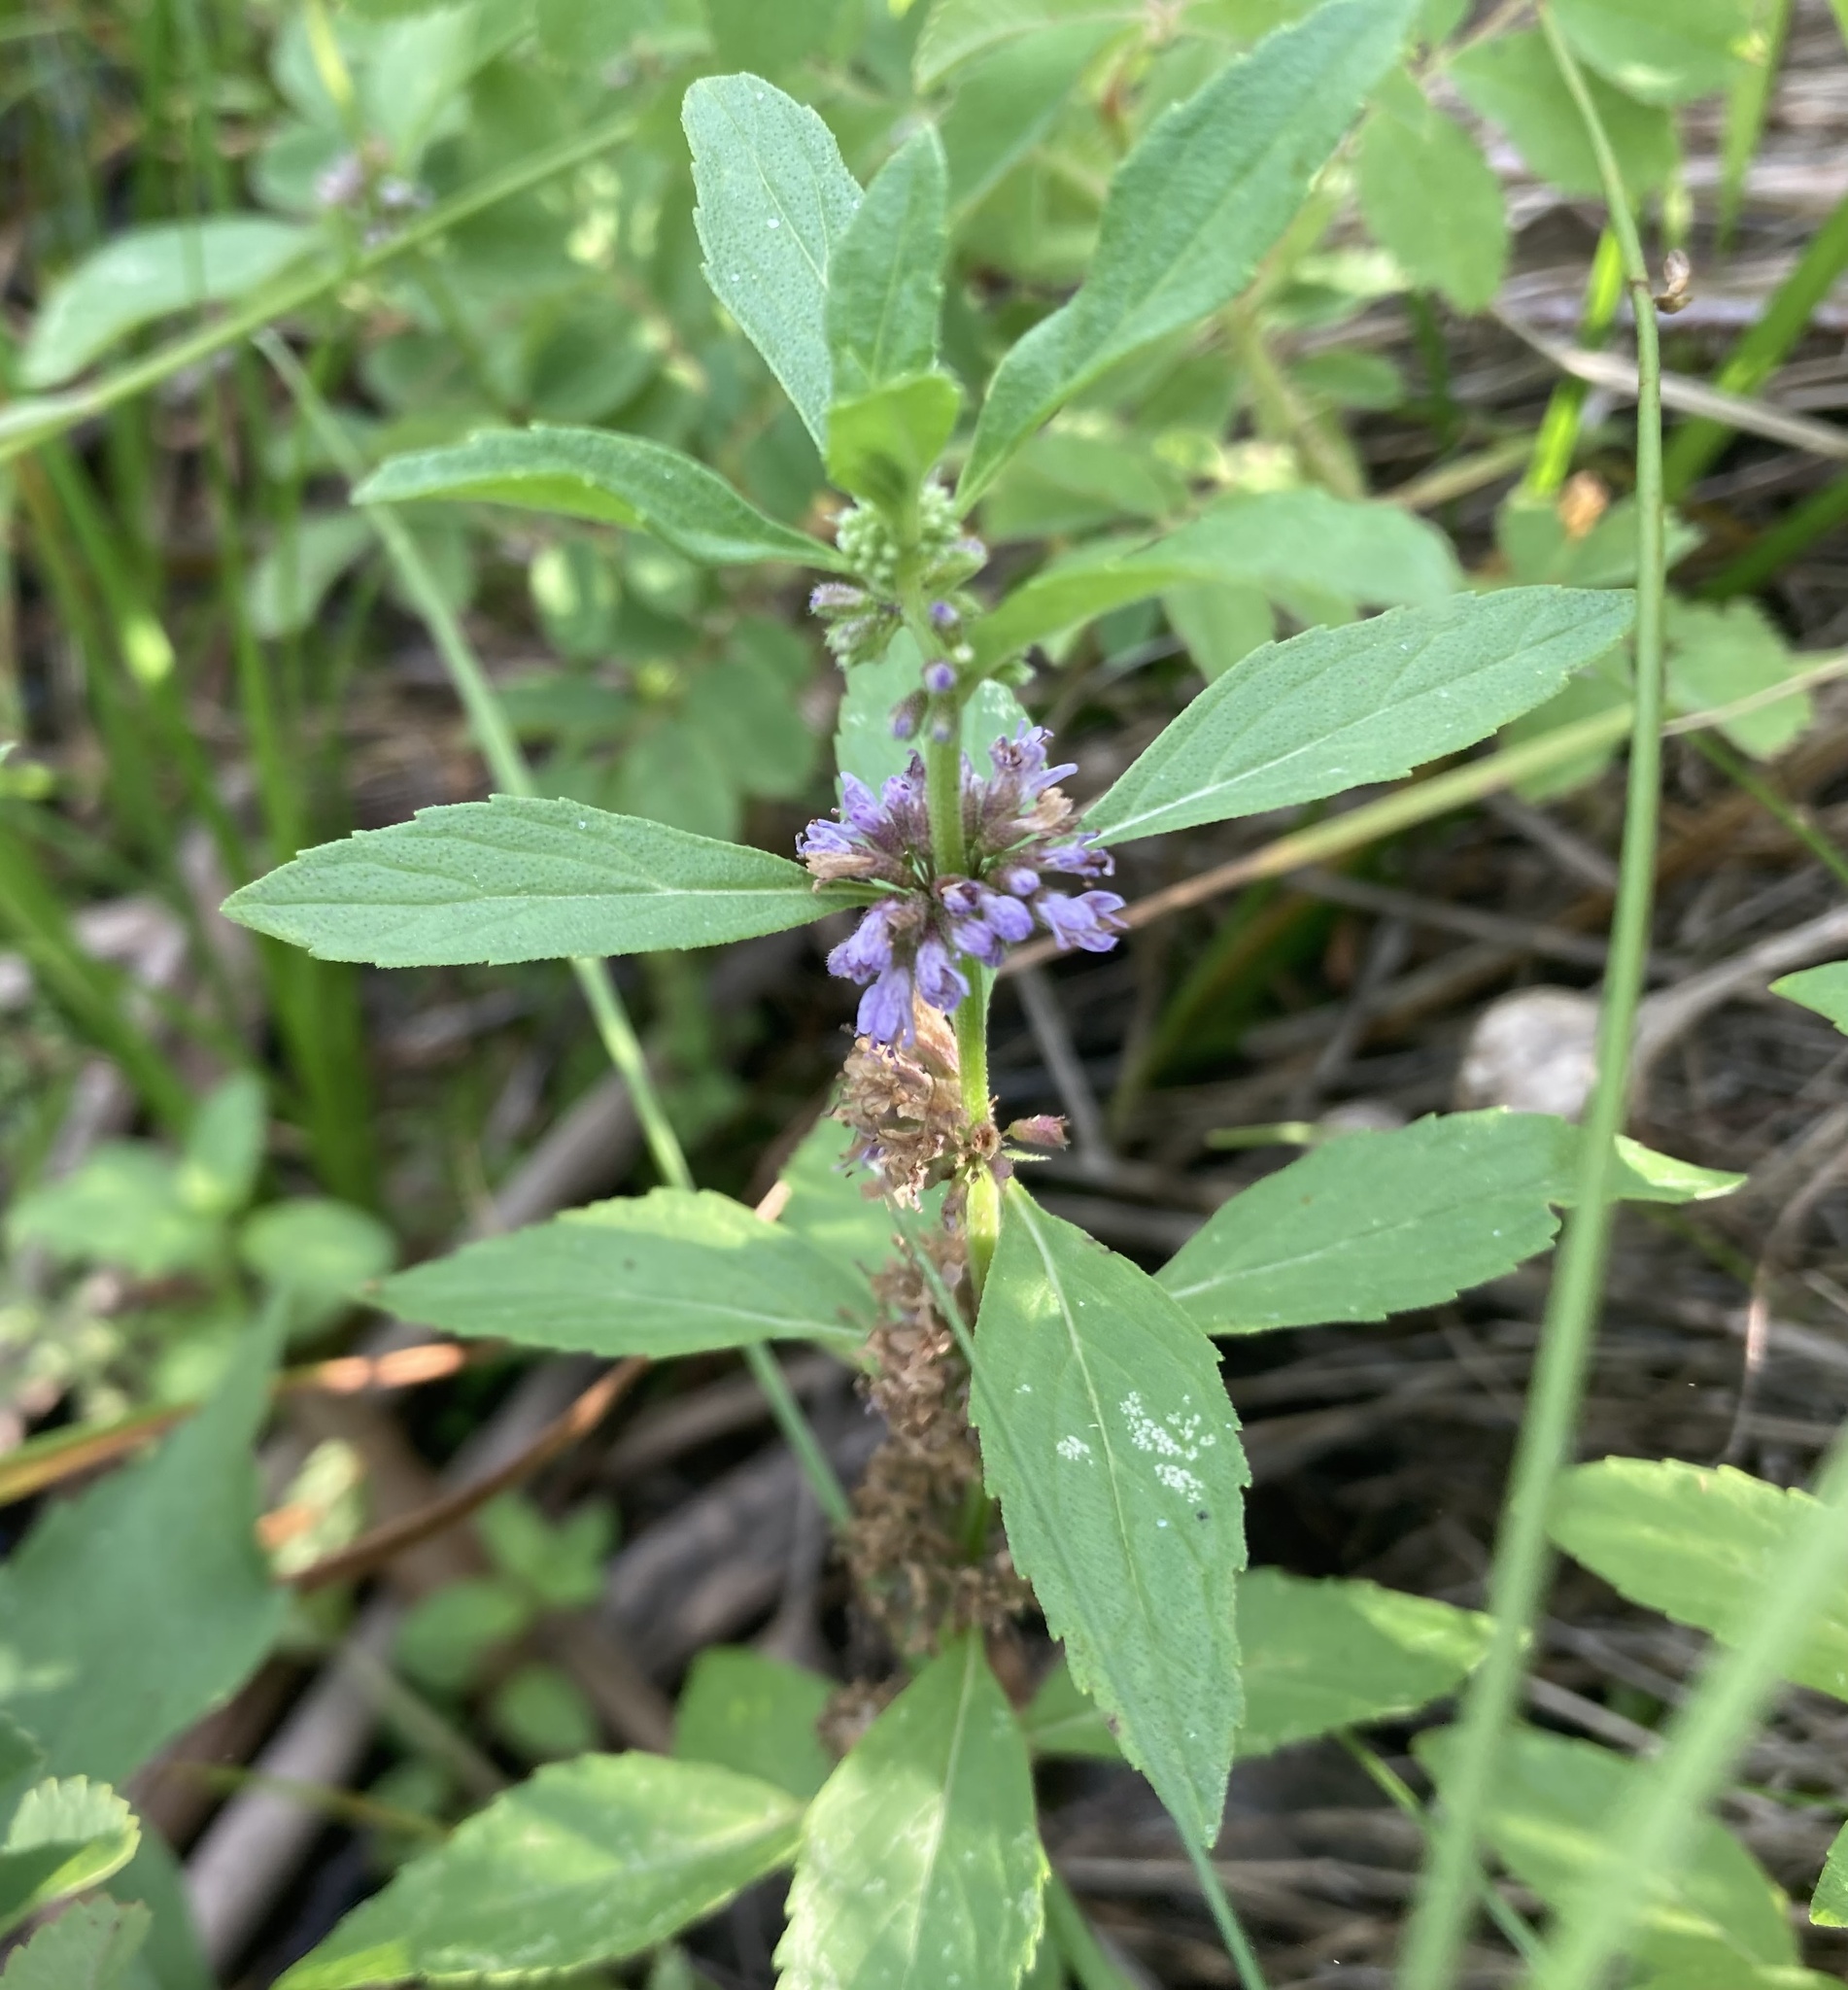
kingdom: Plantae
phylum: Tracheophyta
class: Magnoliopsida
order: Lamiales
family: Lamiaceae
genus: Mentha
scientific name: Mentha canadensis
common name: American corn mint
